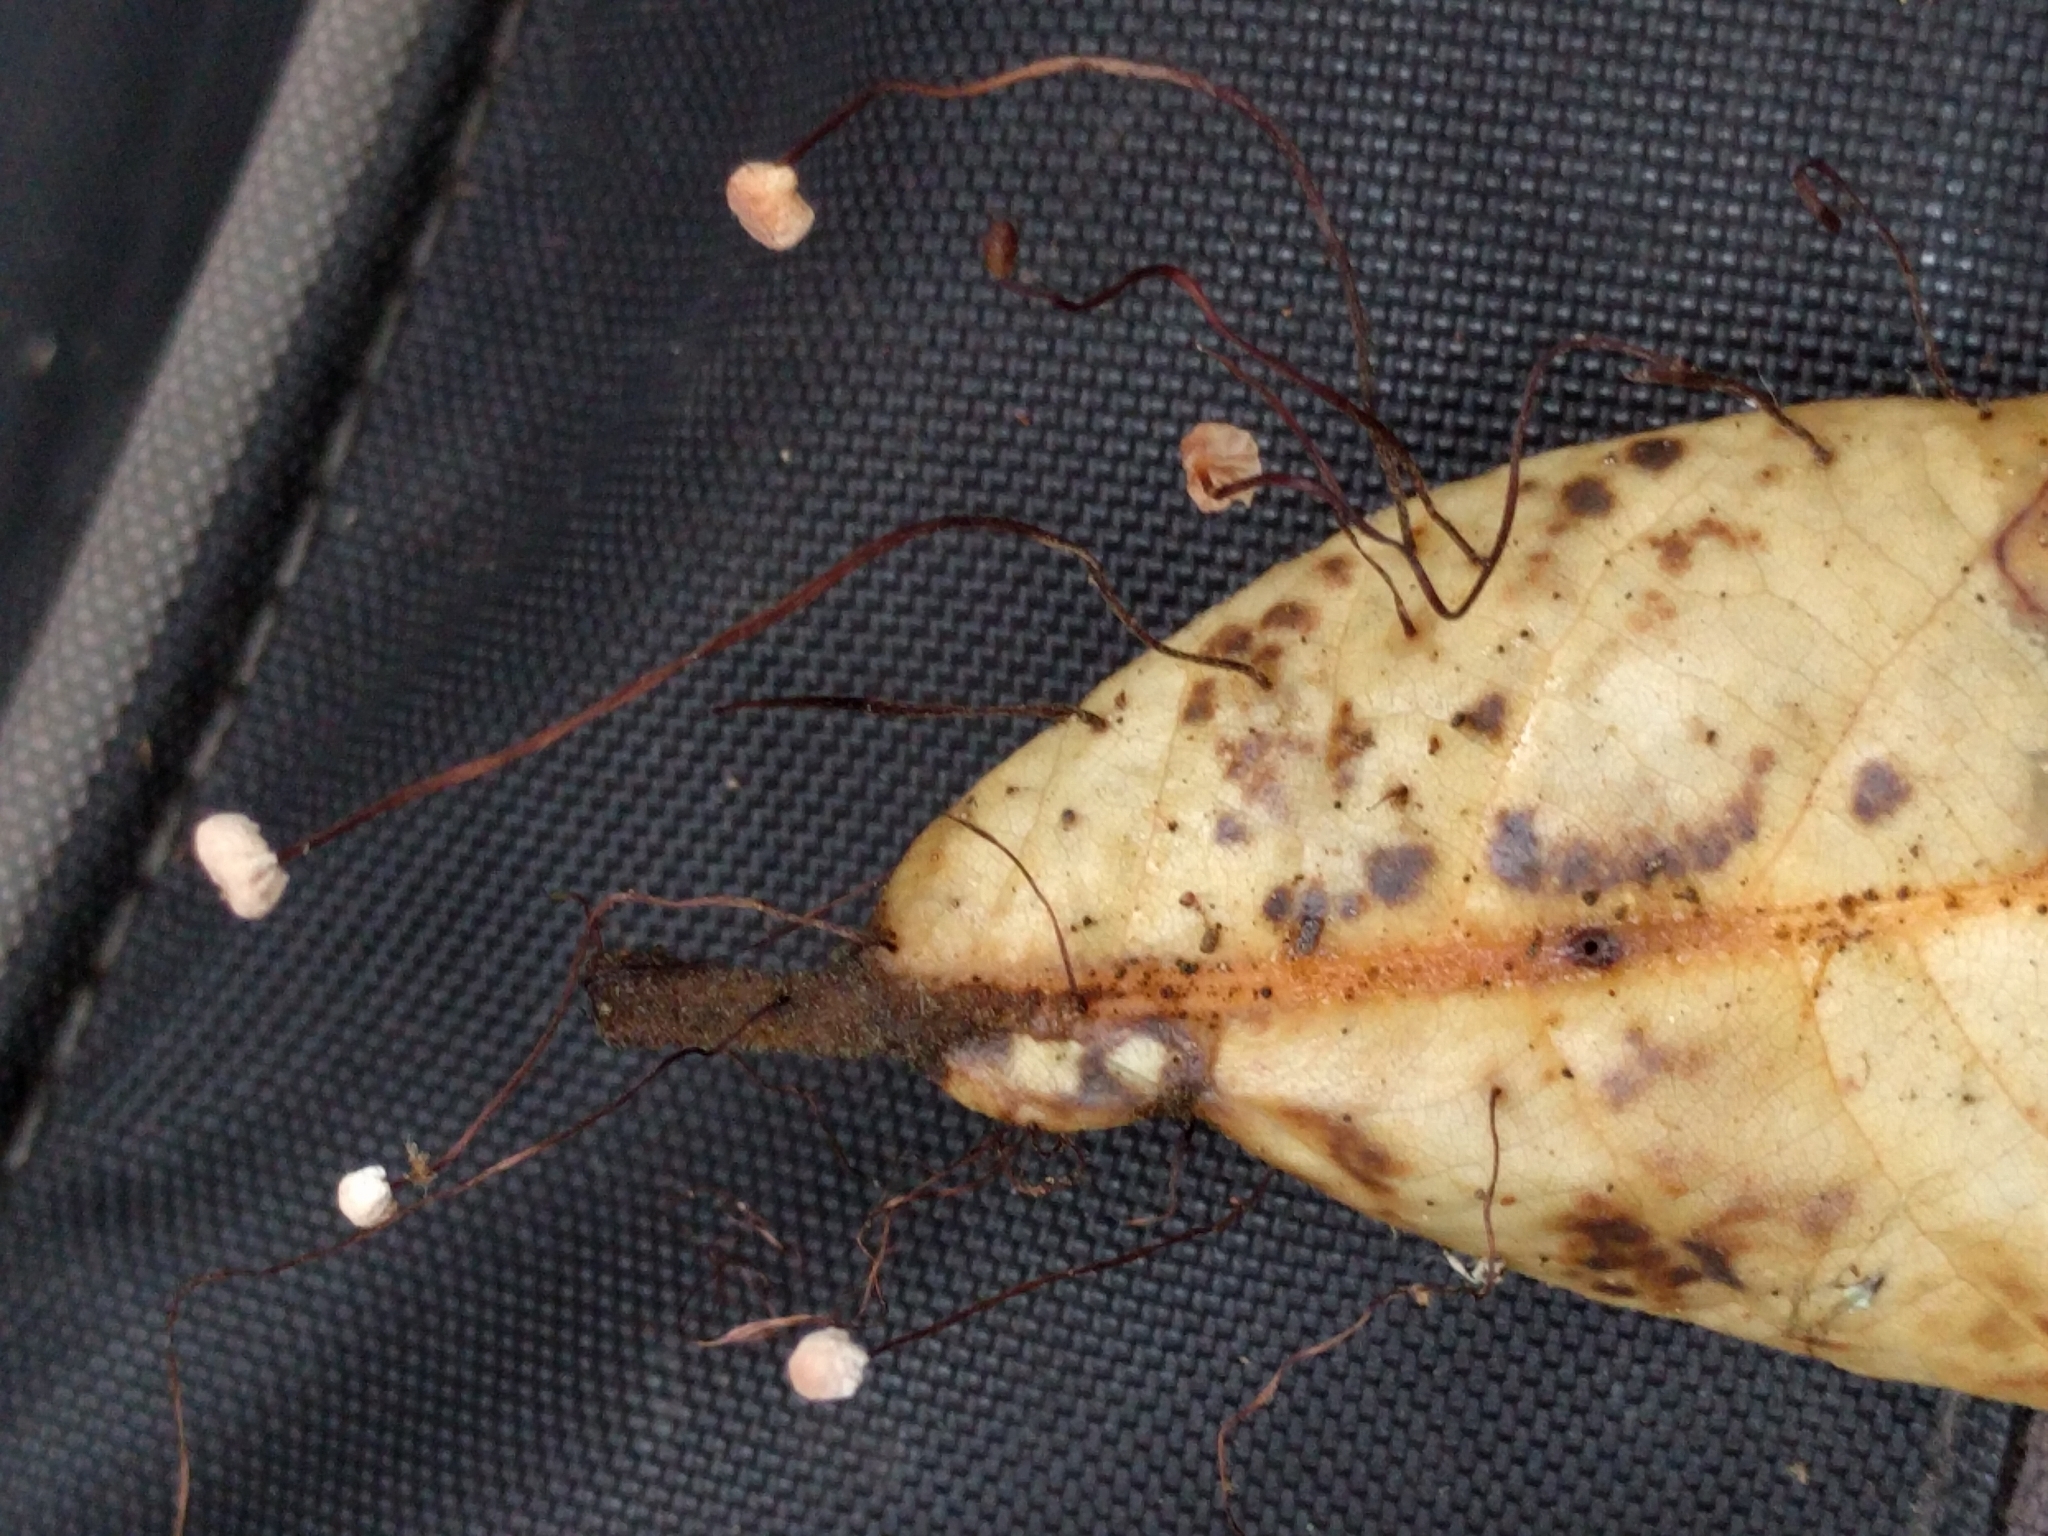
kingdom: Fungi
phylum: Basidiomycota
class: Agaricomycetes
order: Agaricales
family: Omphalotaceae
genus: Collybiopsis
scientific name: Collybiopsis quercophila
